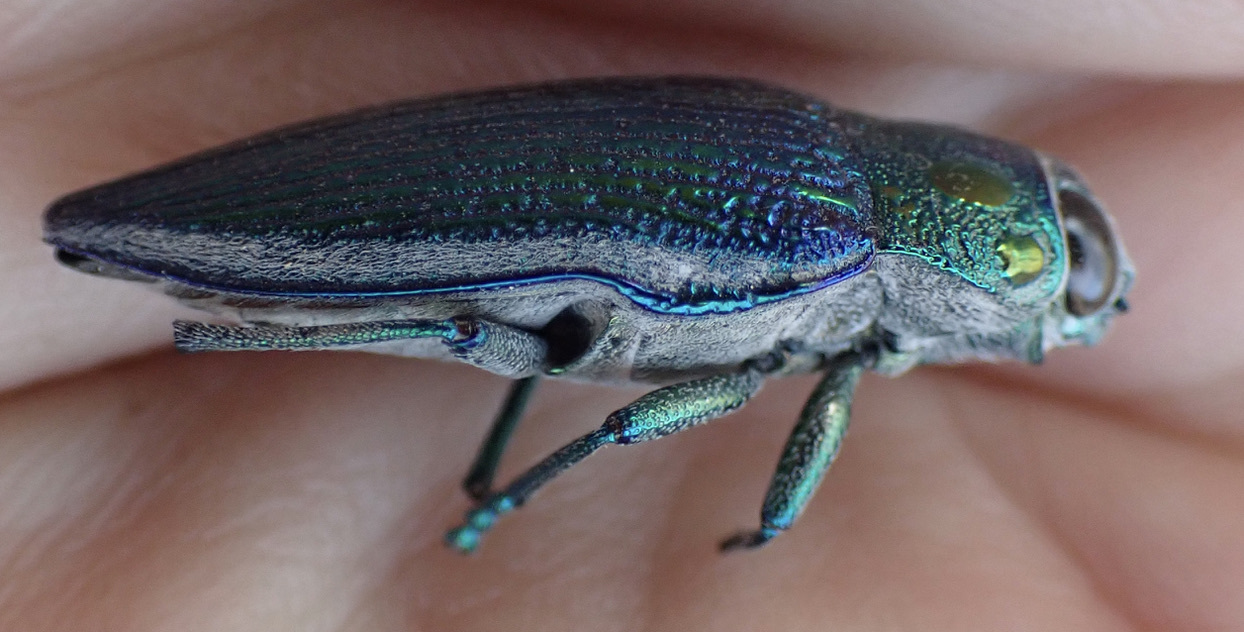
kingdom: Animalia
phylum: Arthropoda
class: Insecta
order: Coleoptera
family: Buprestidae
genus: Lampetis
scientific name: Lampetis amaurotica
